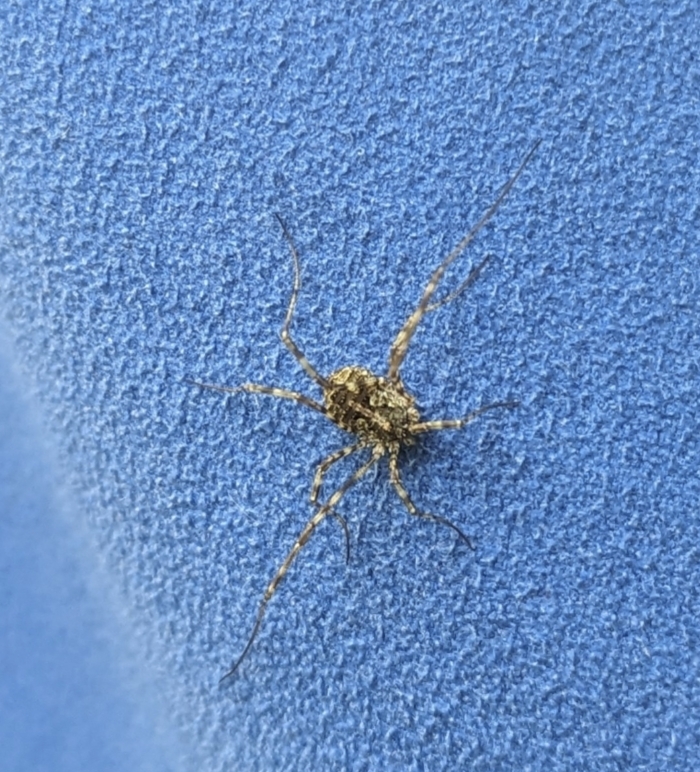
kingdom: Animalia
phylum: Arthropoda
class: Arachnida
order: Opiliones
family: Phalangiidae
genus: Lacinius
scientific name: Lacinius dentiger
